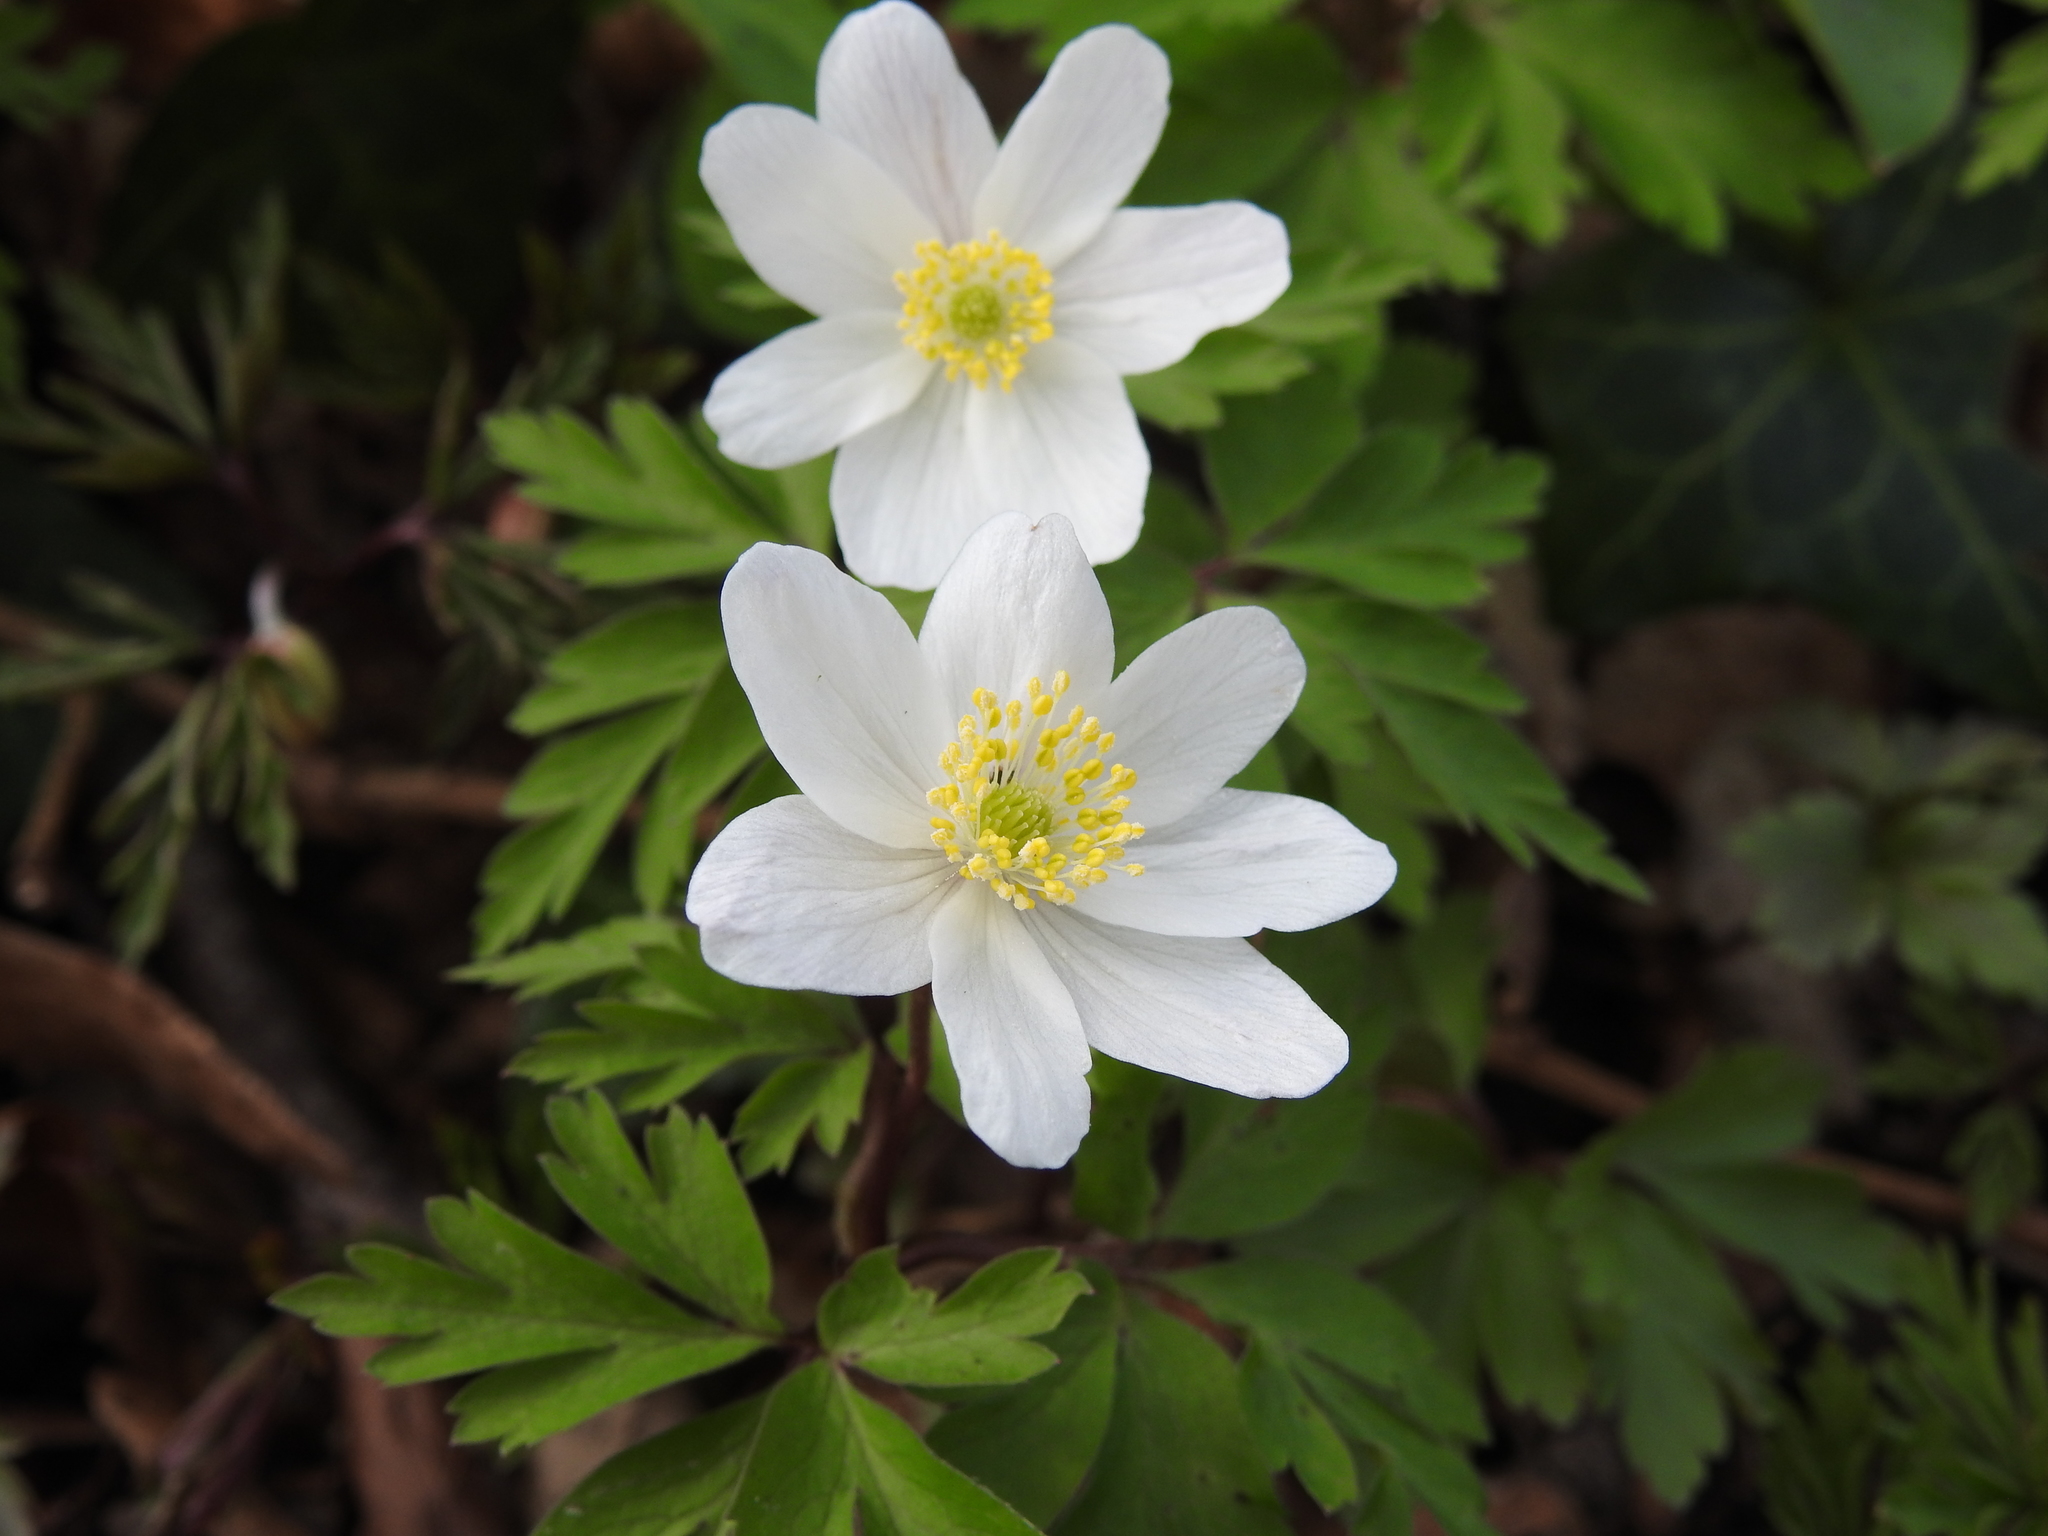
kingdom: Plantae
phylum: Tracheophyta
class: Magnoliopsida
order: Ranunculales
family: Ranunculaceae
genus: Anemone
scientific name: Anemone nemorosa
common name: Wood anemone
